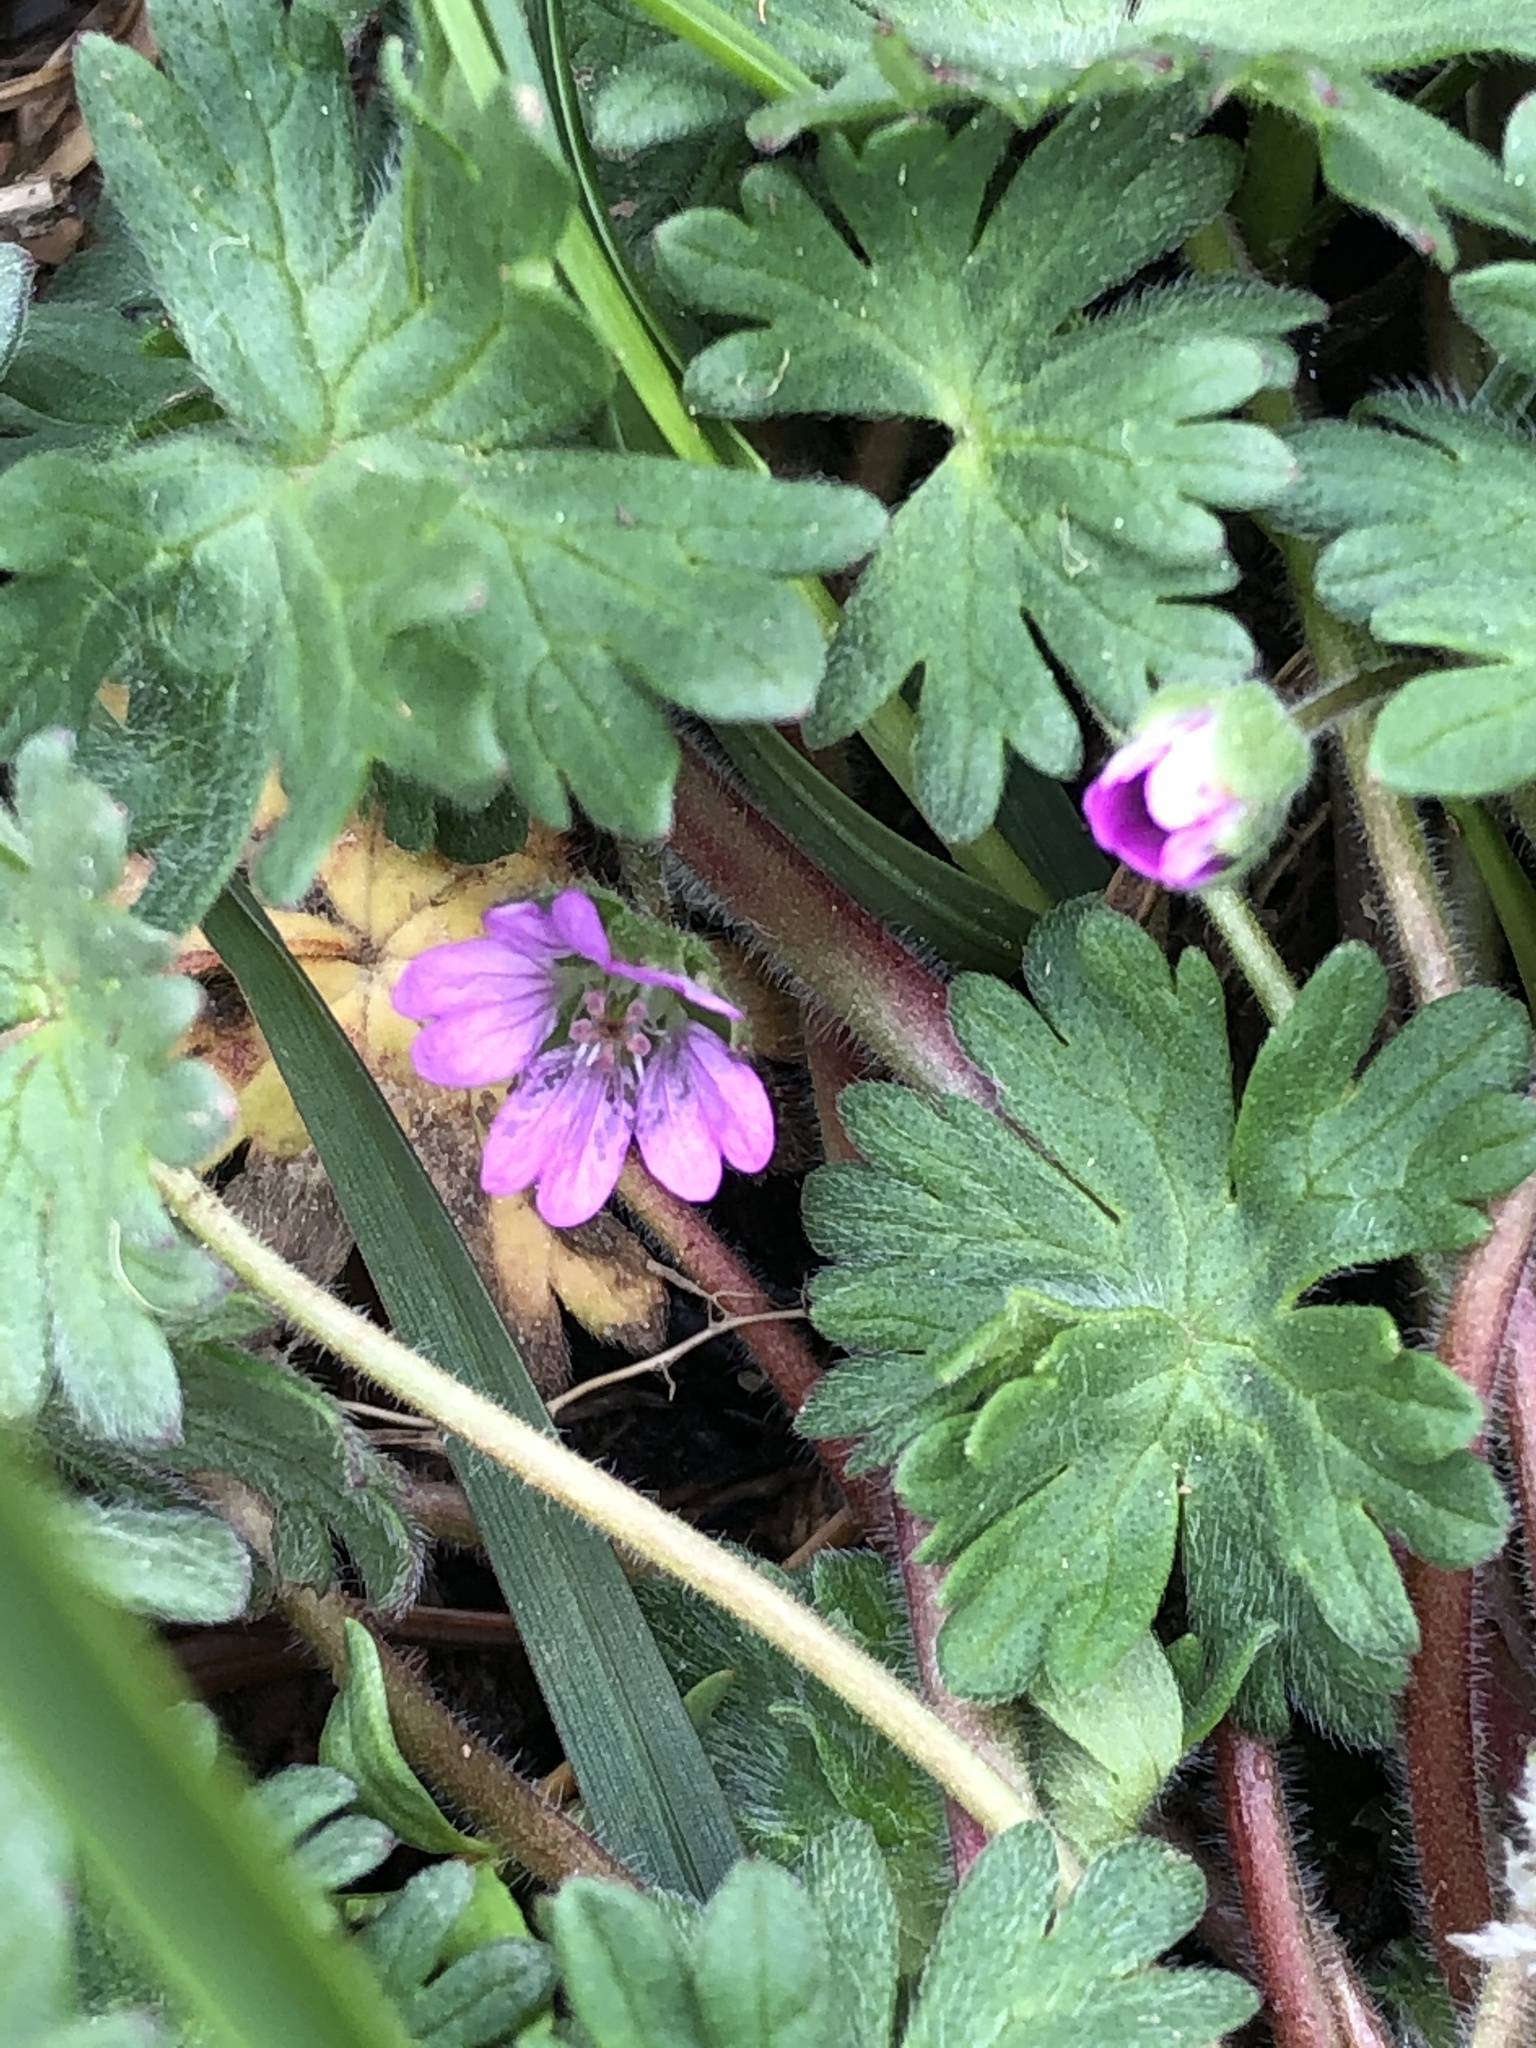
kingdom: Plantae
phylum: Tracheophyta
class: Magnoliopsida
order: Geraniales
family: Geraniaceae
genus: Geranium
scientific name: Geranium molle
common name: Dove's-foot crane's-bill
